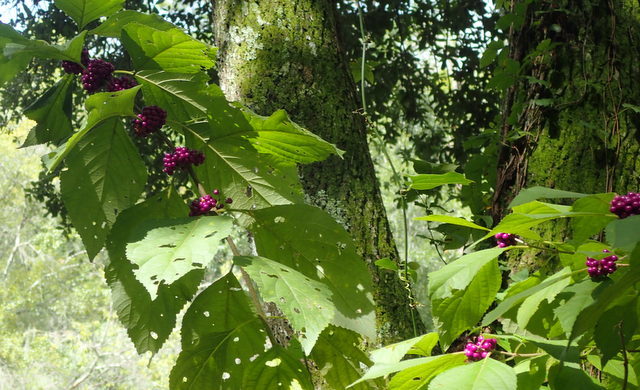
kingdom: Plantae
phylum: Tracheophyta
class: Magnoliopsida
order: Lamiales
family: Lamiaceae
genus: Callicarpa
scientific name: Callicarpa americana
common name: American beautyberry
